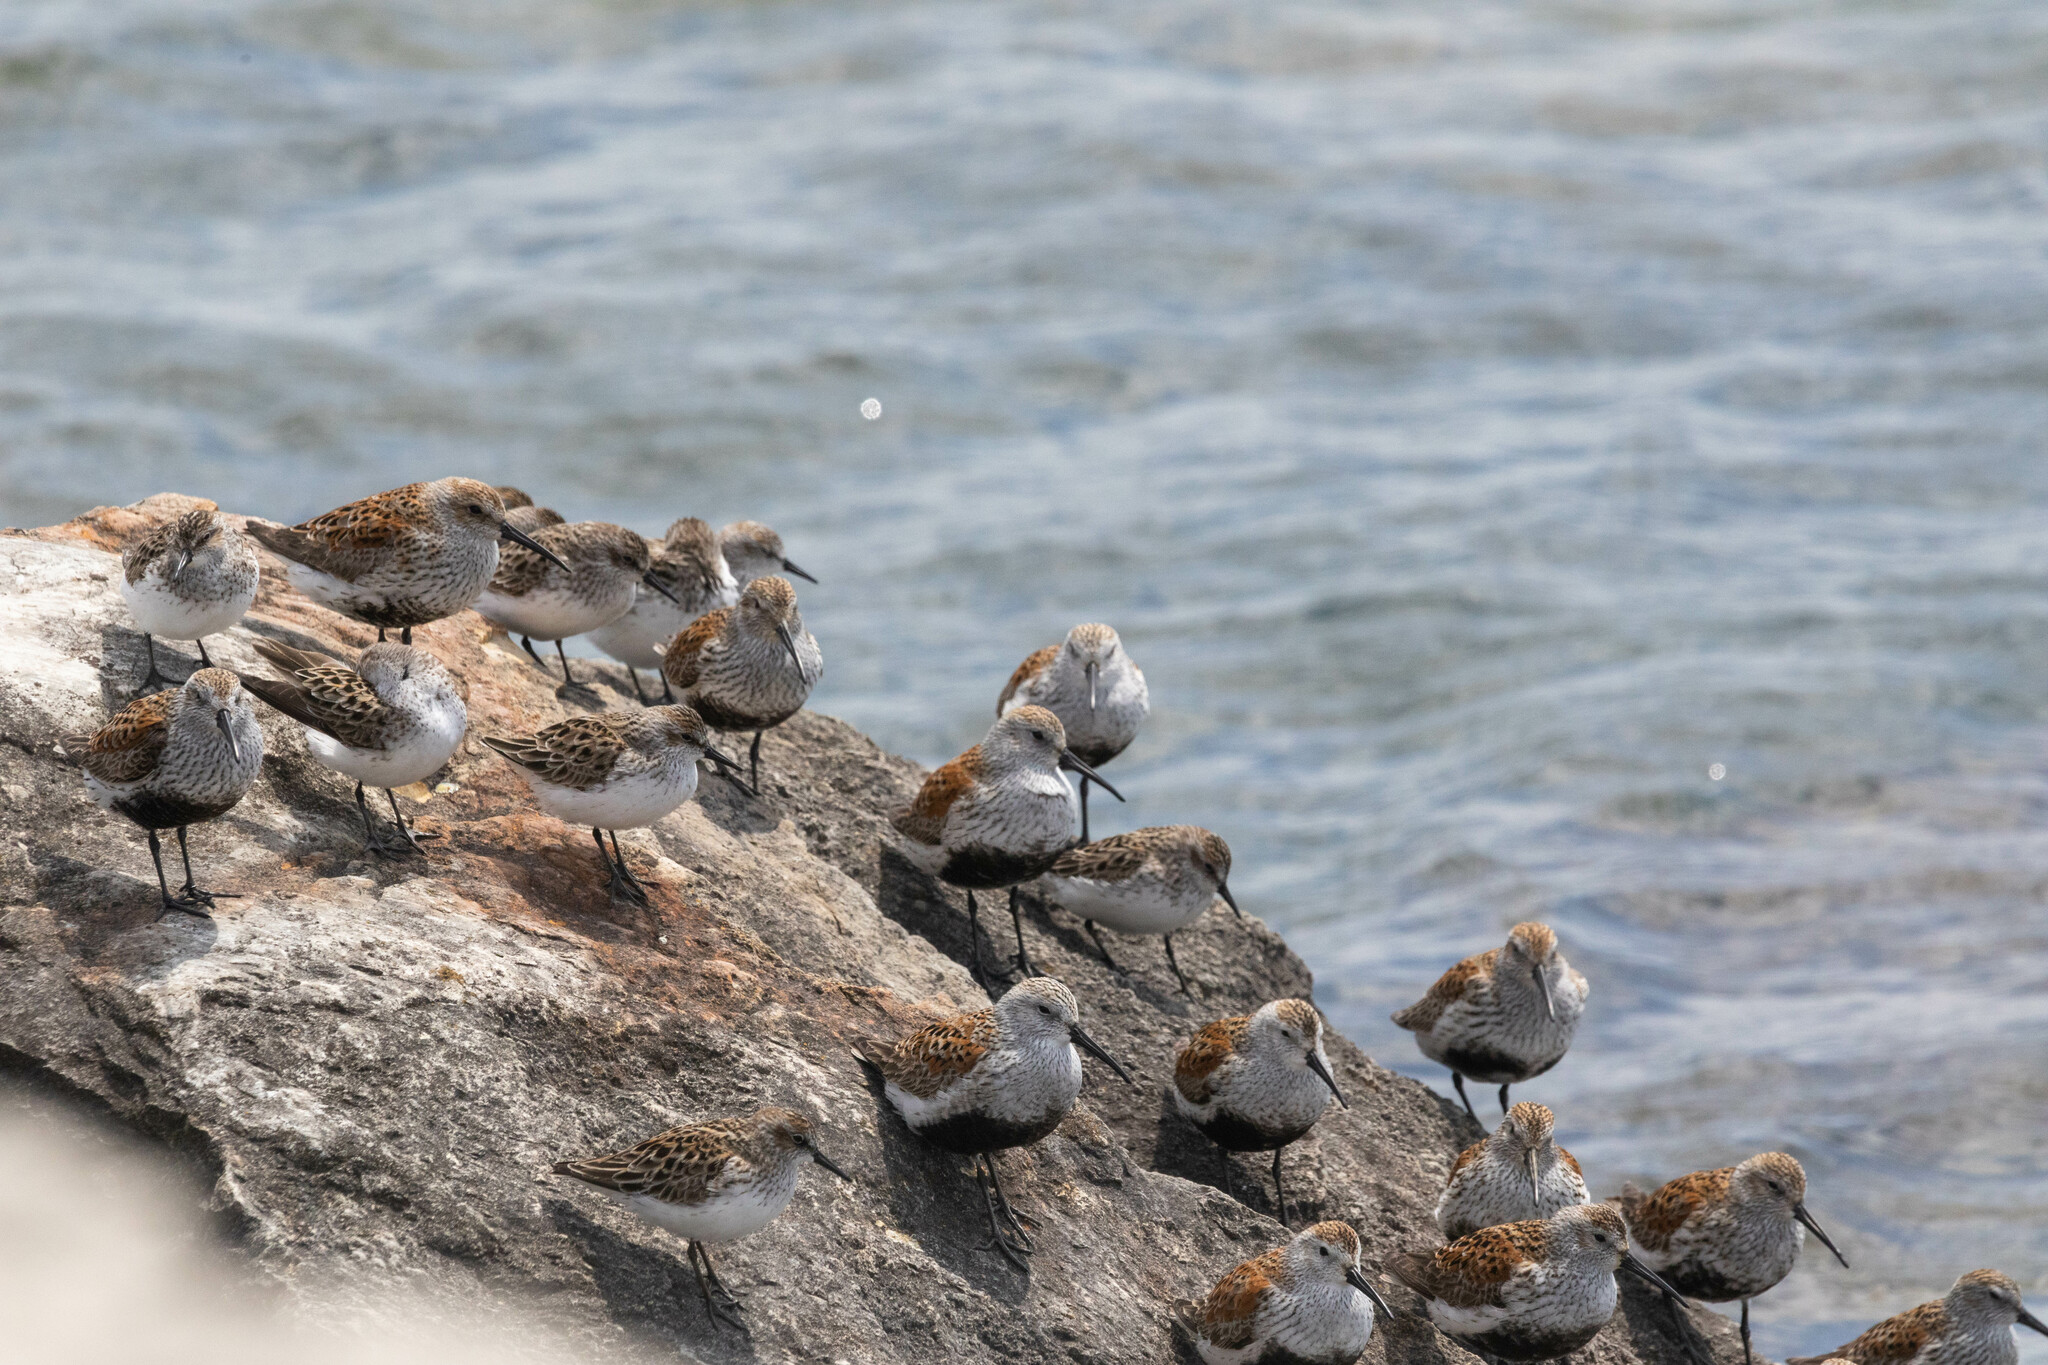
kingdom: Animalia
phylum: Chordata
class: Aves
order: Charadriiformes
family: Scolopacidae
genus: Calidris
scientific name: Calidris alpina
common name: Dunlin
